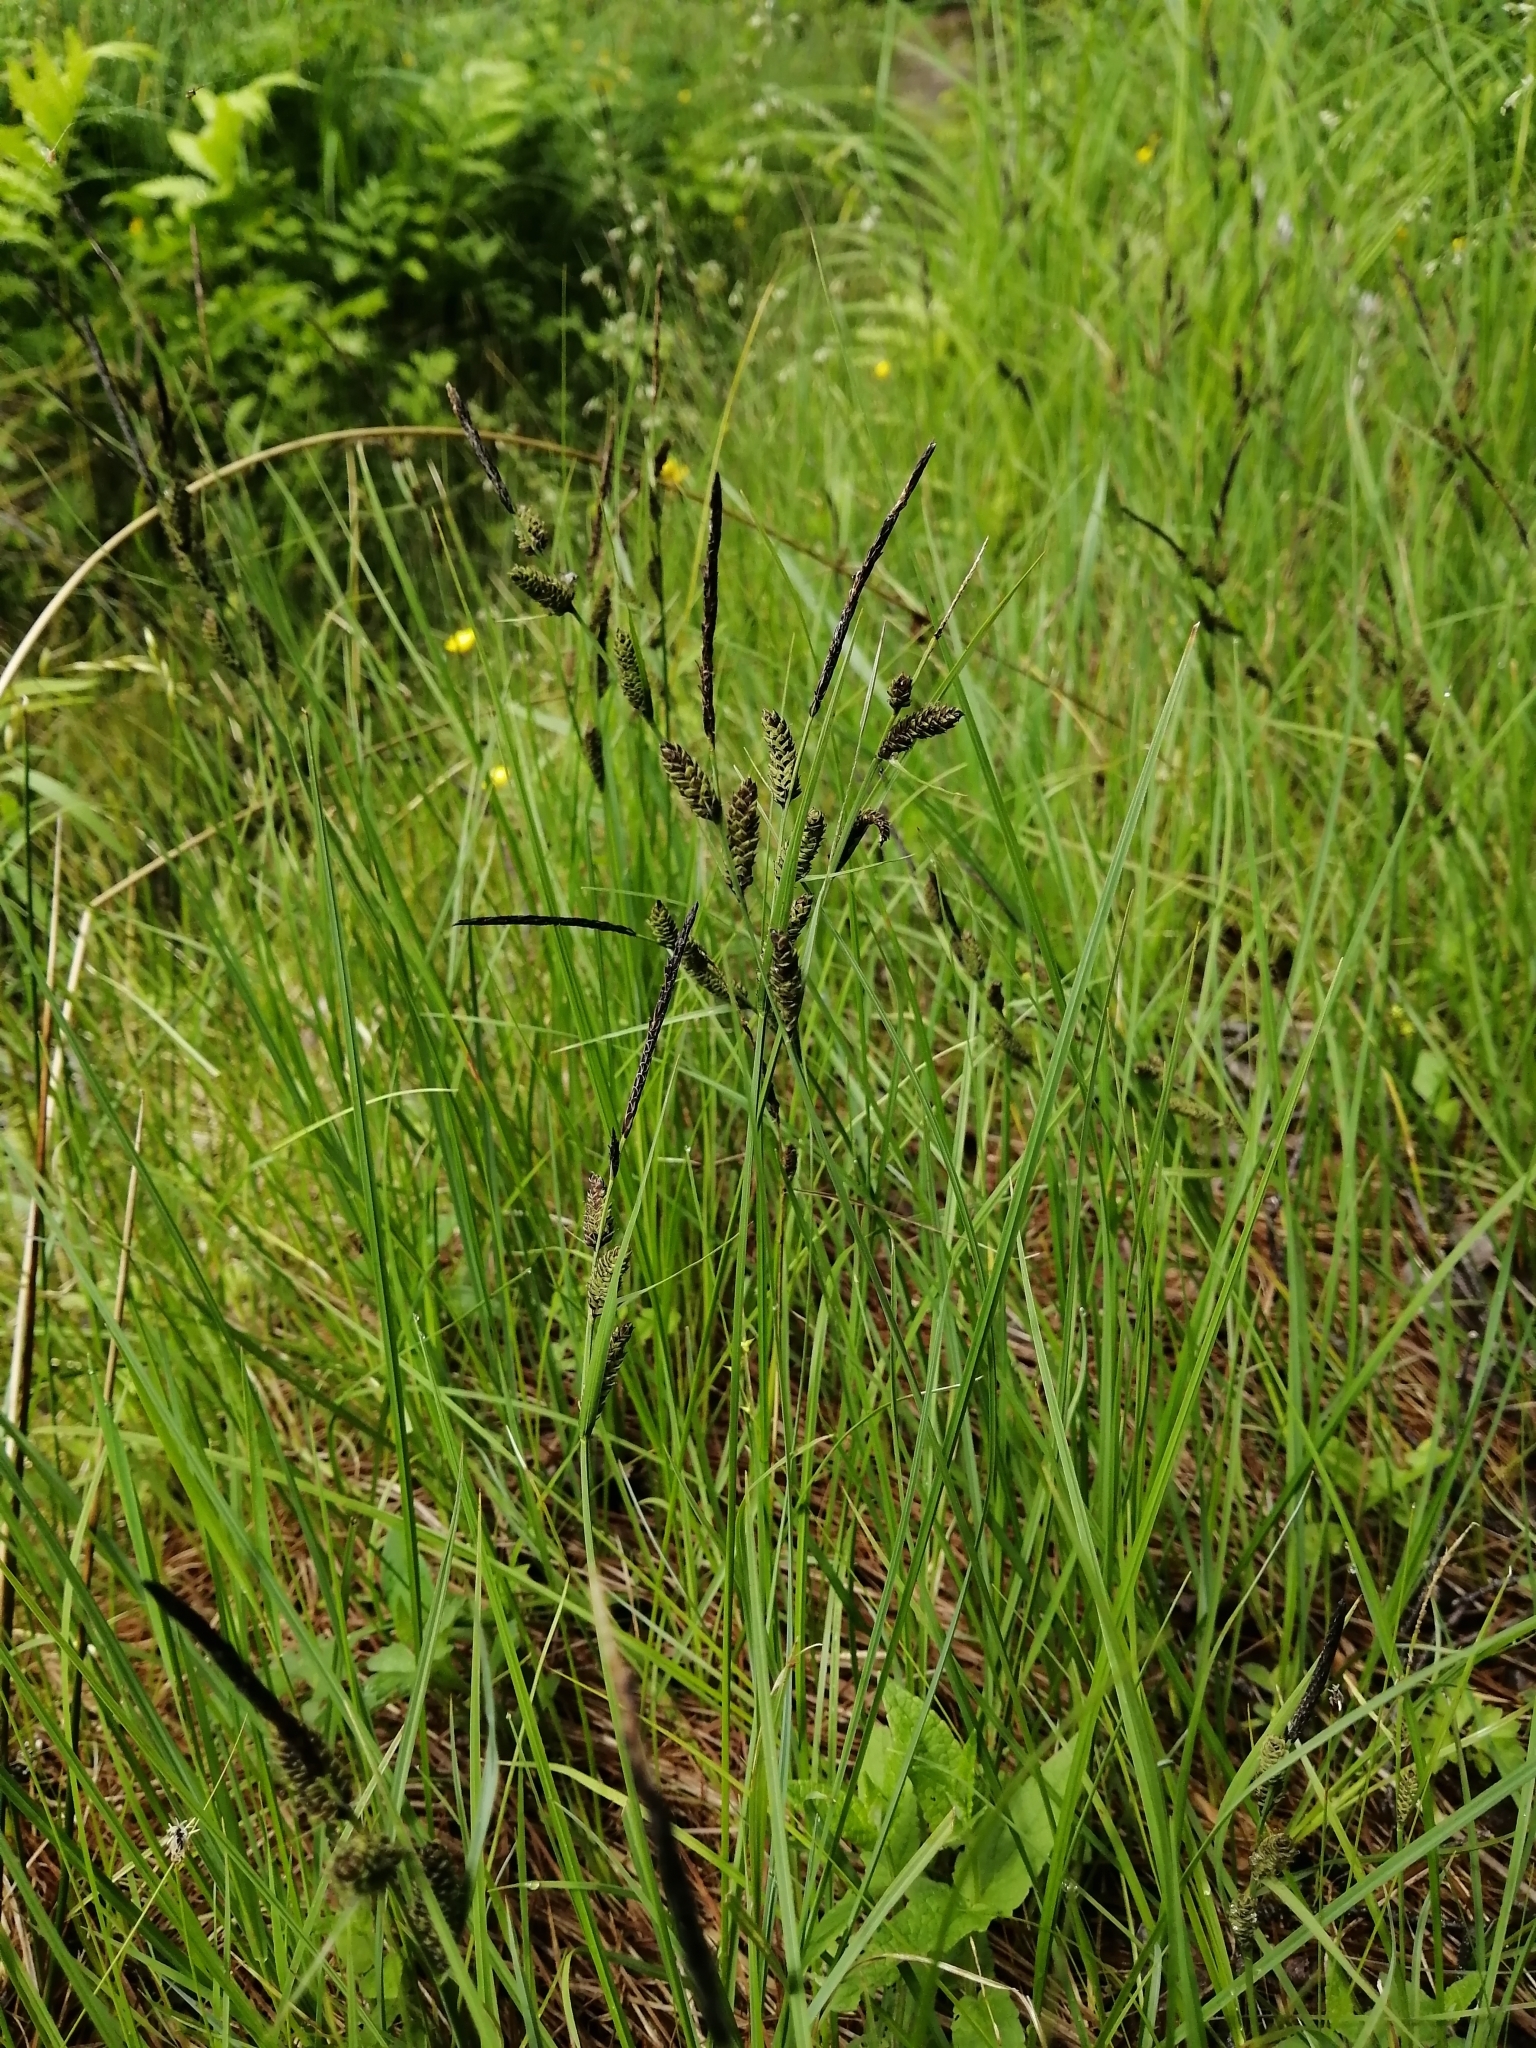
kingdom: Plantae
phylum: Tracheophyta
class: Liliopsida
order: Poales
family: Cyperaceae
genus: Carex
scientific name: Carex nigra
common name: Common sedge
